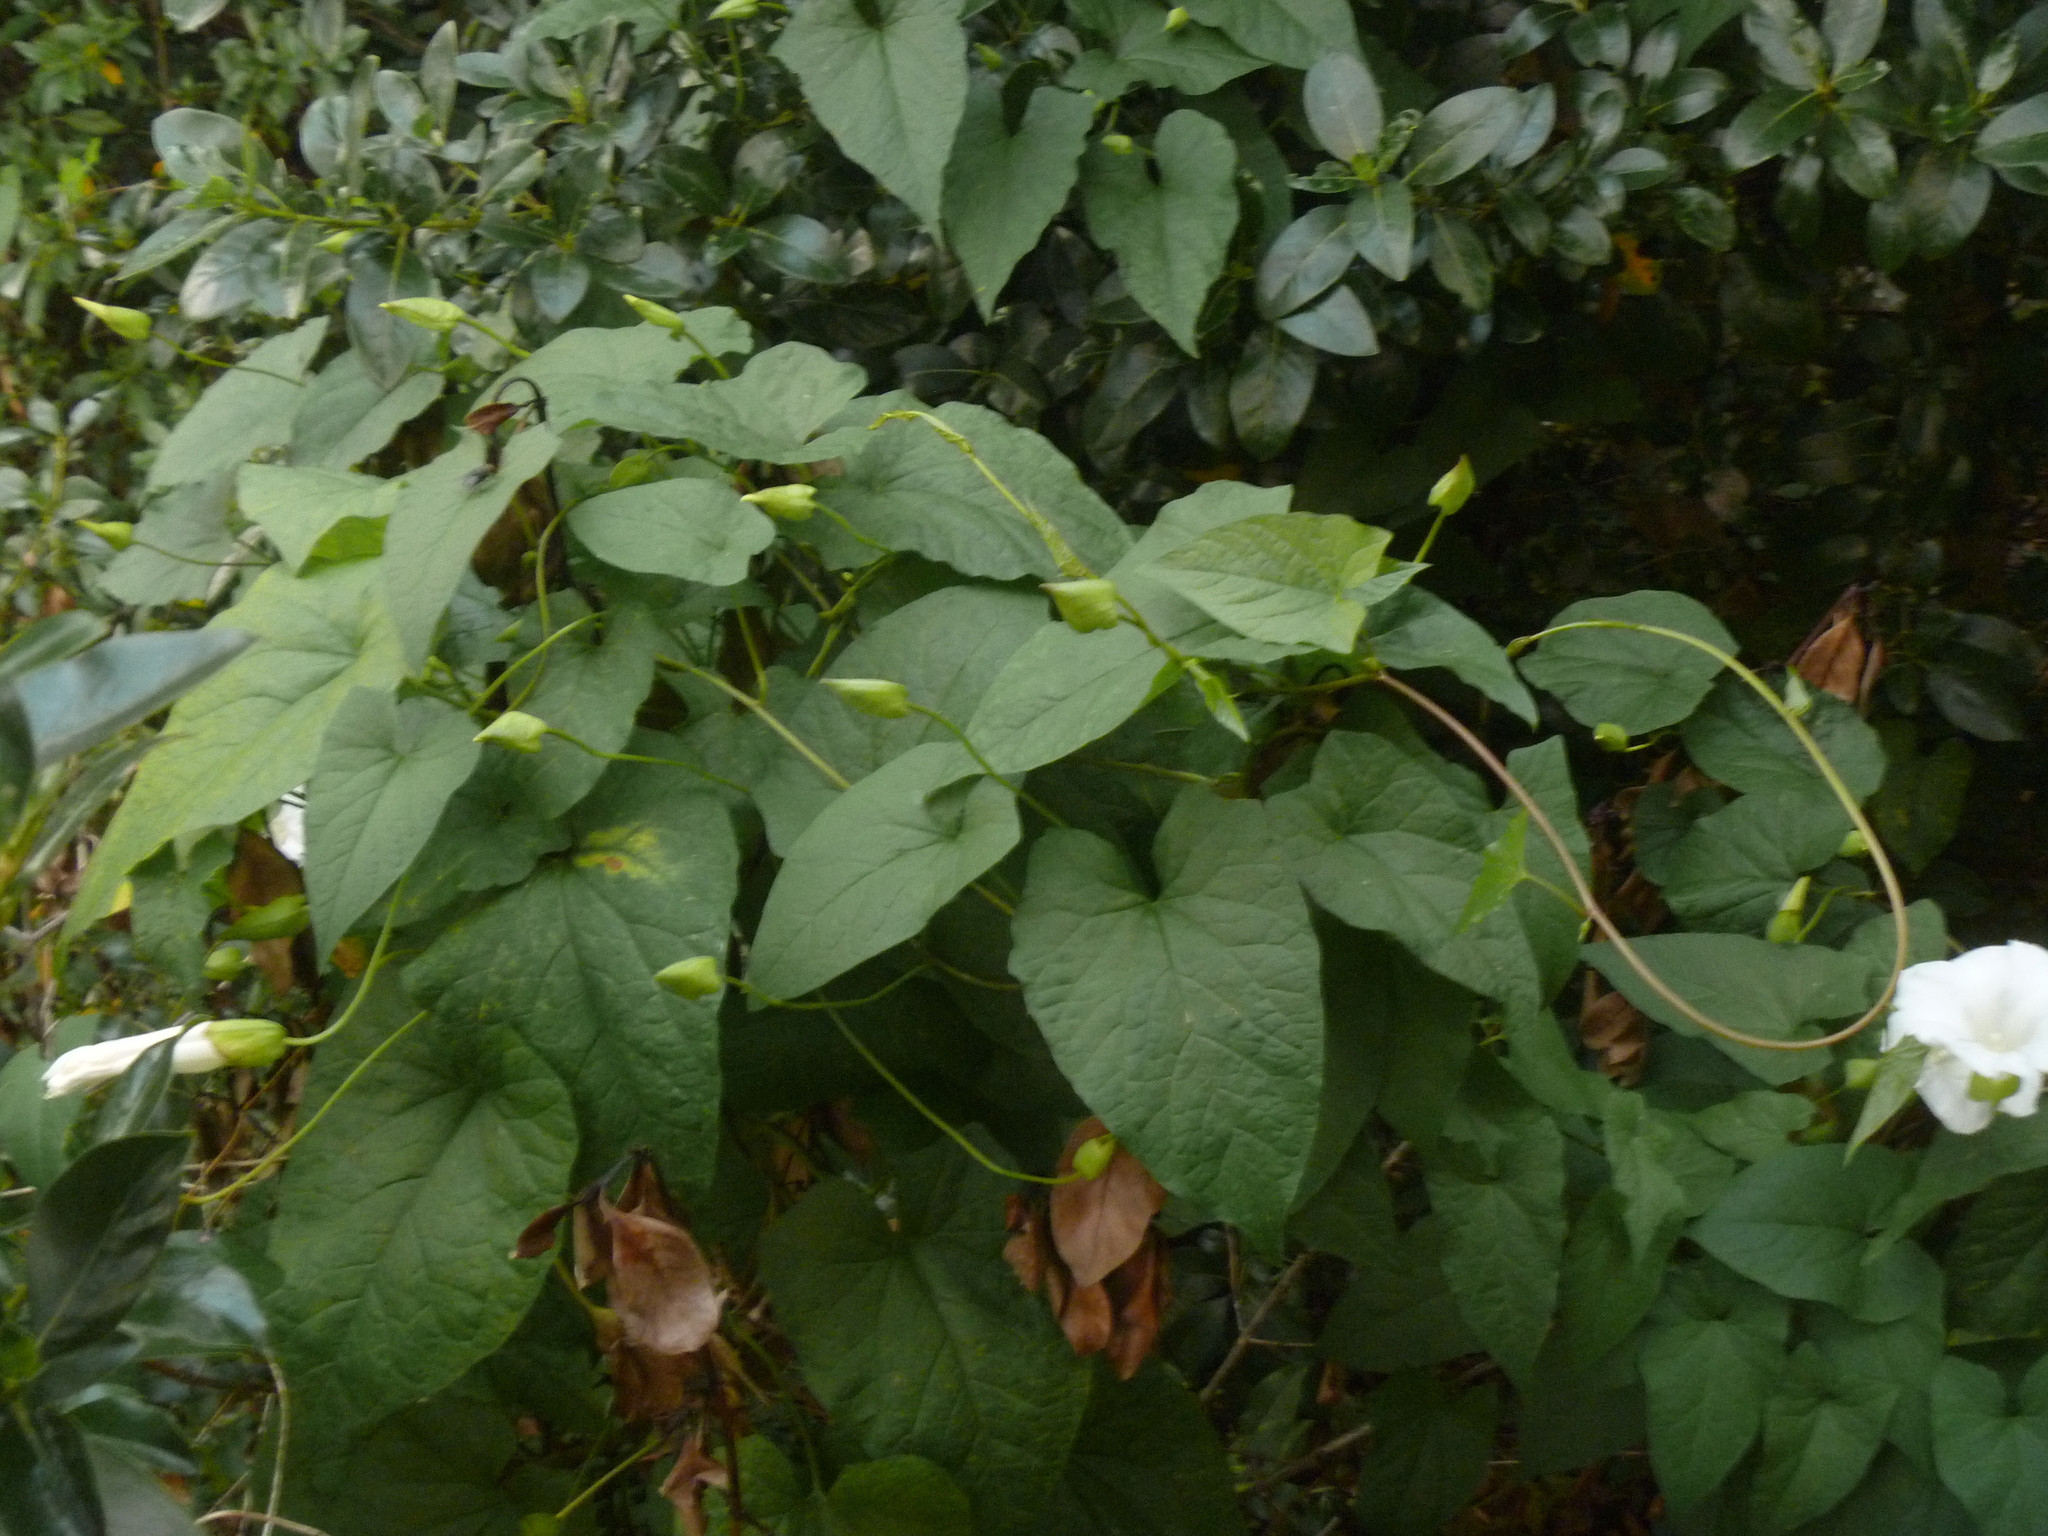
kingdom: Plantae
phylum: Tracheophyta
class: Magnoliopsida
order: Solanales
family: Convolvulaceae
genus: Calystegia
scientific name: Calystegia silvatica
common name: Large bindweed
